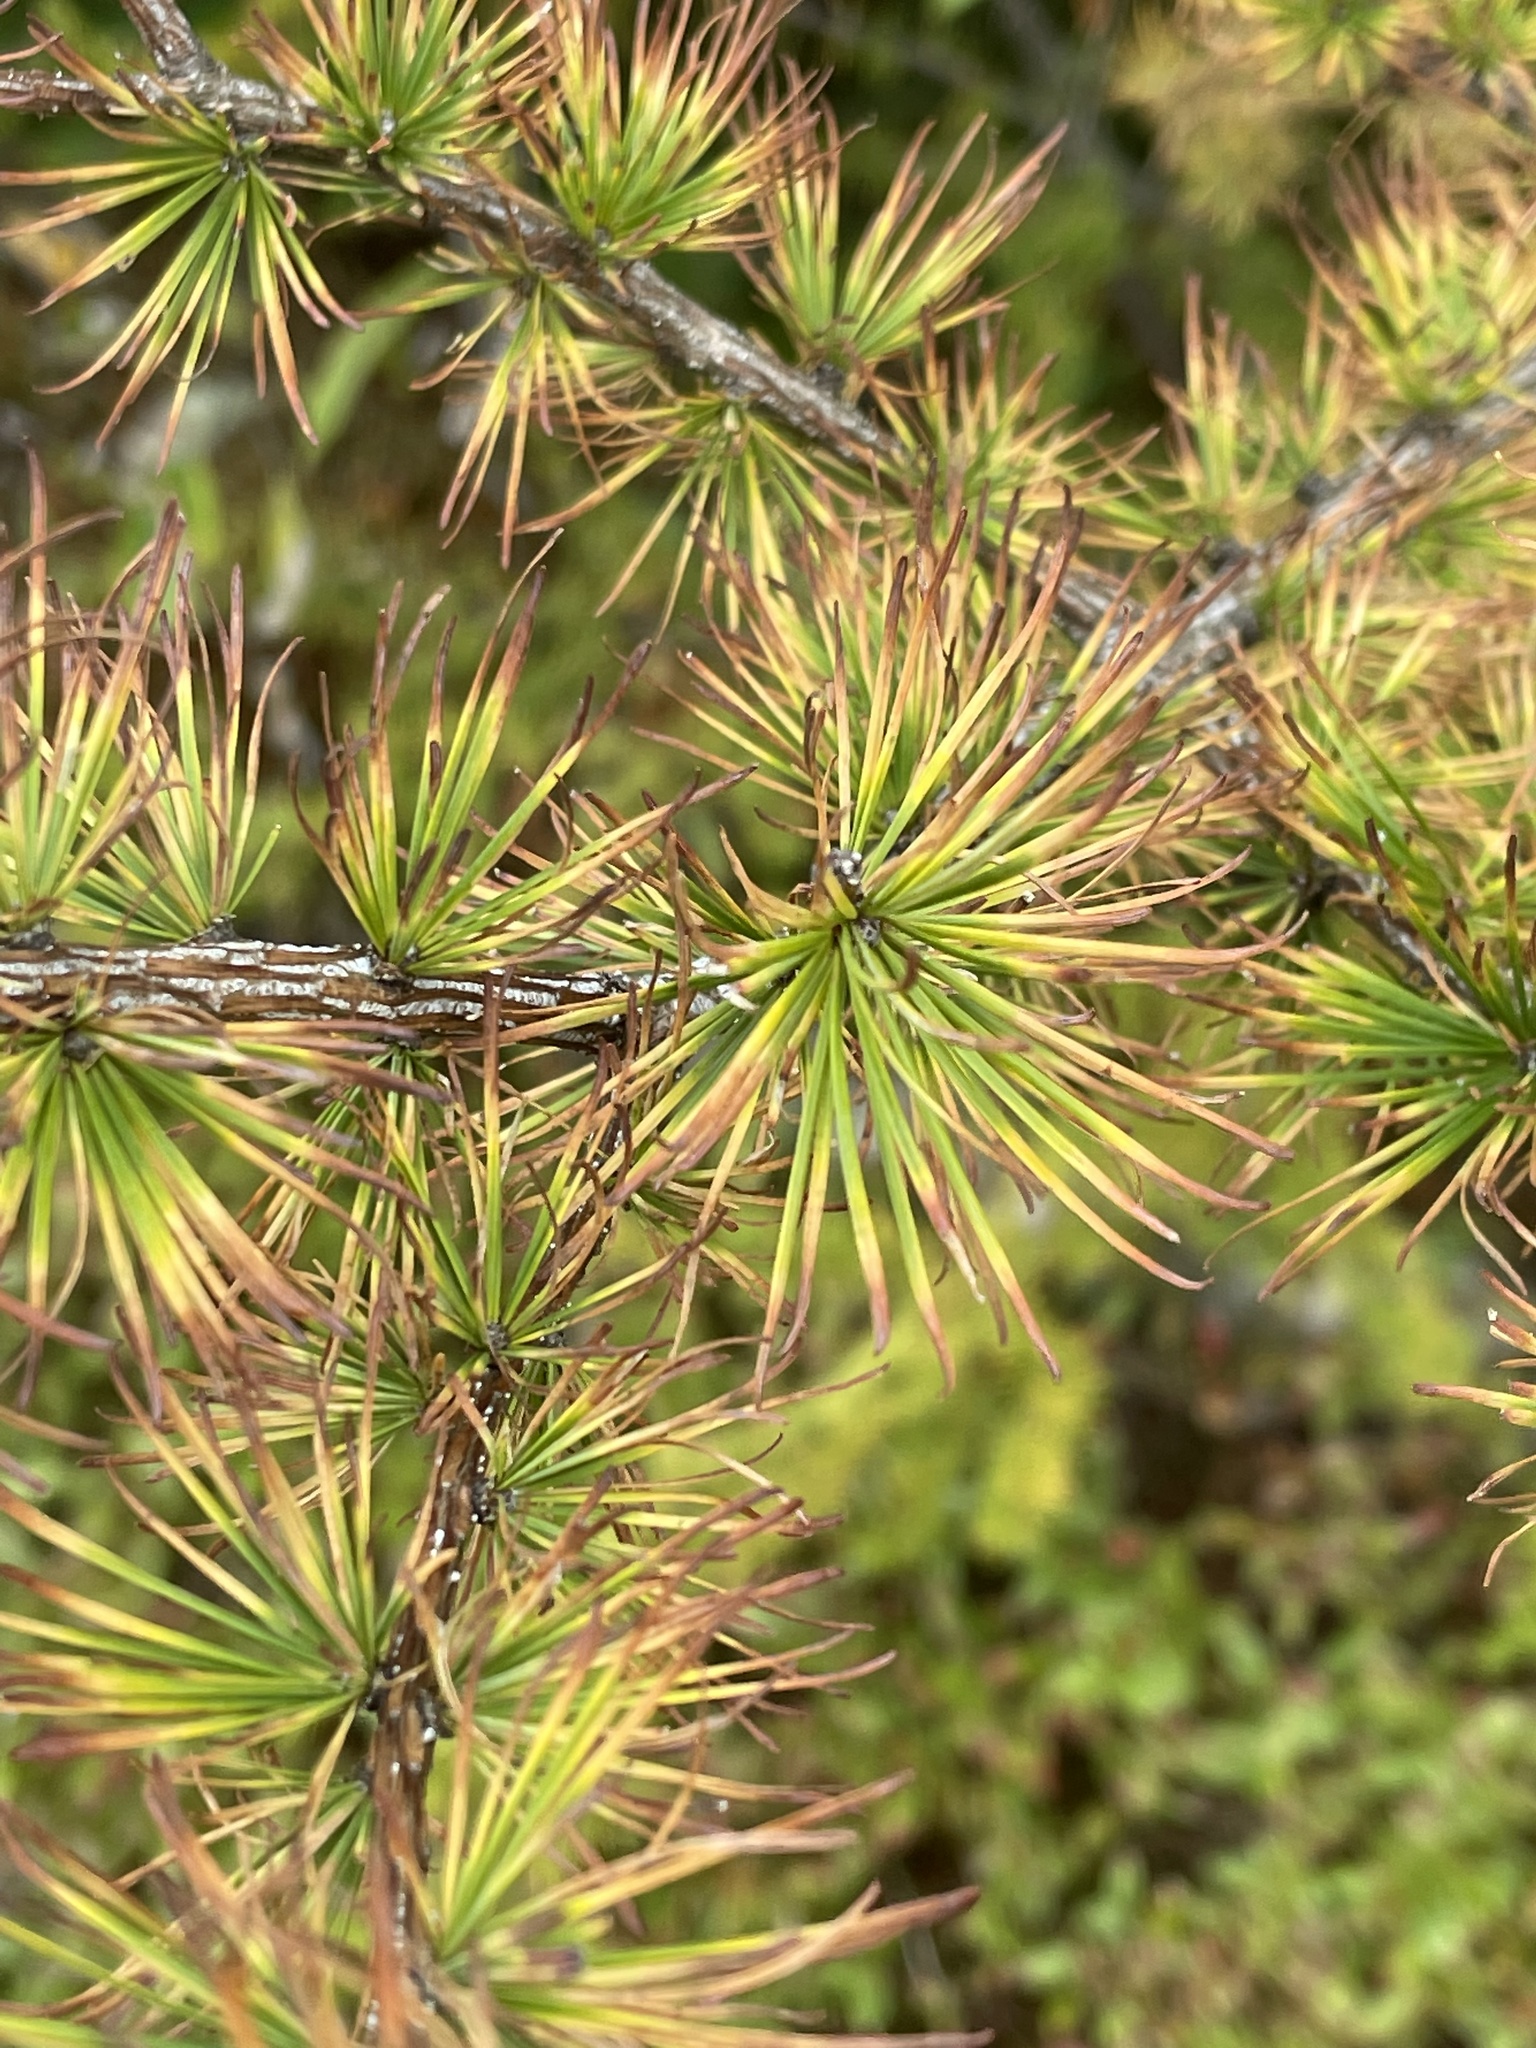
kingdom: Plantae
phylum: Tracheophyta
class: Pinopsida
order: Pinales
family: Pinaceae
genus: Larix
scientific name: Larix laricina
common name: American larch
